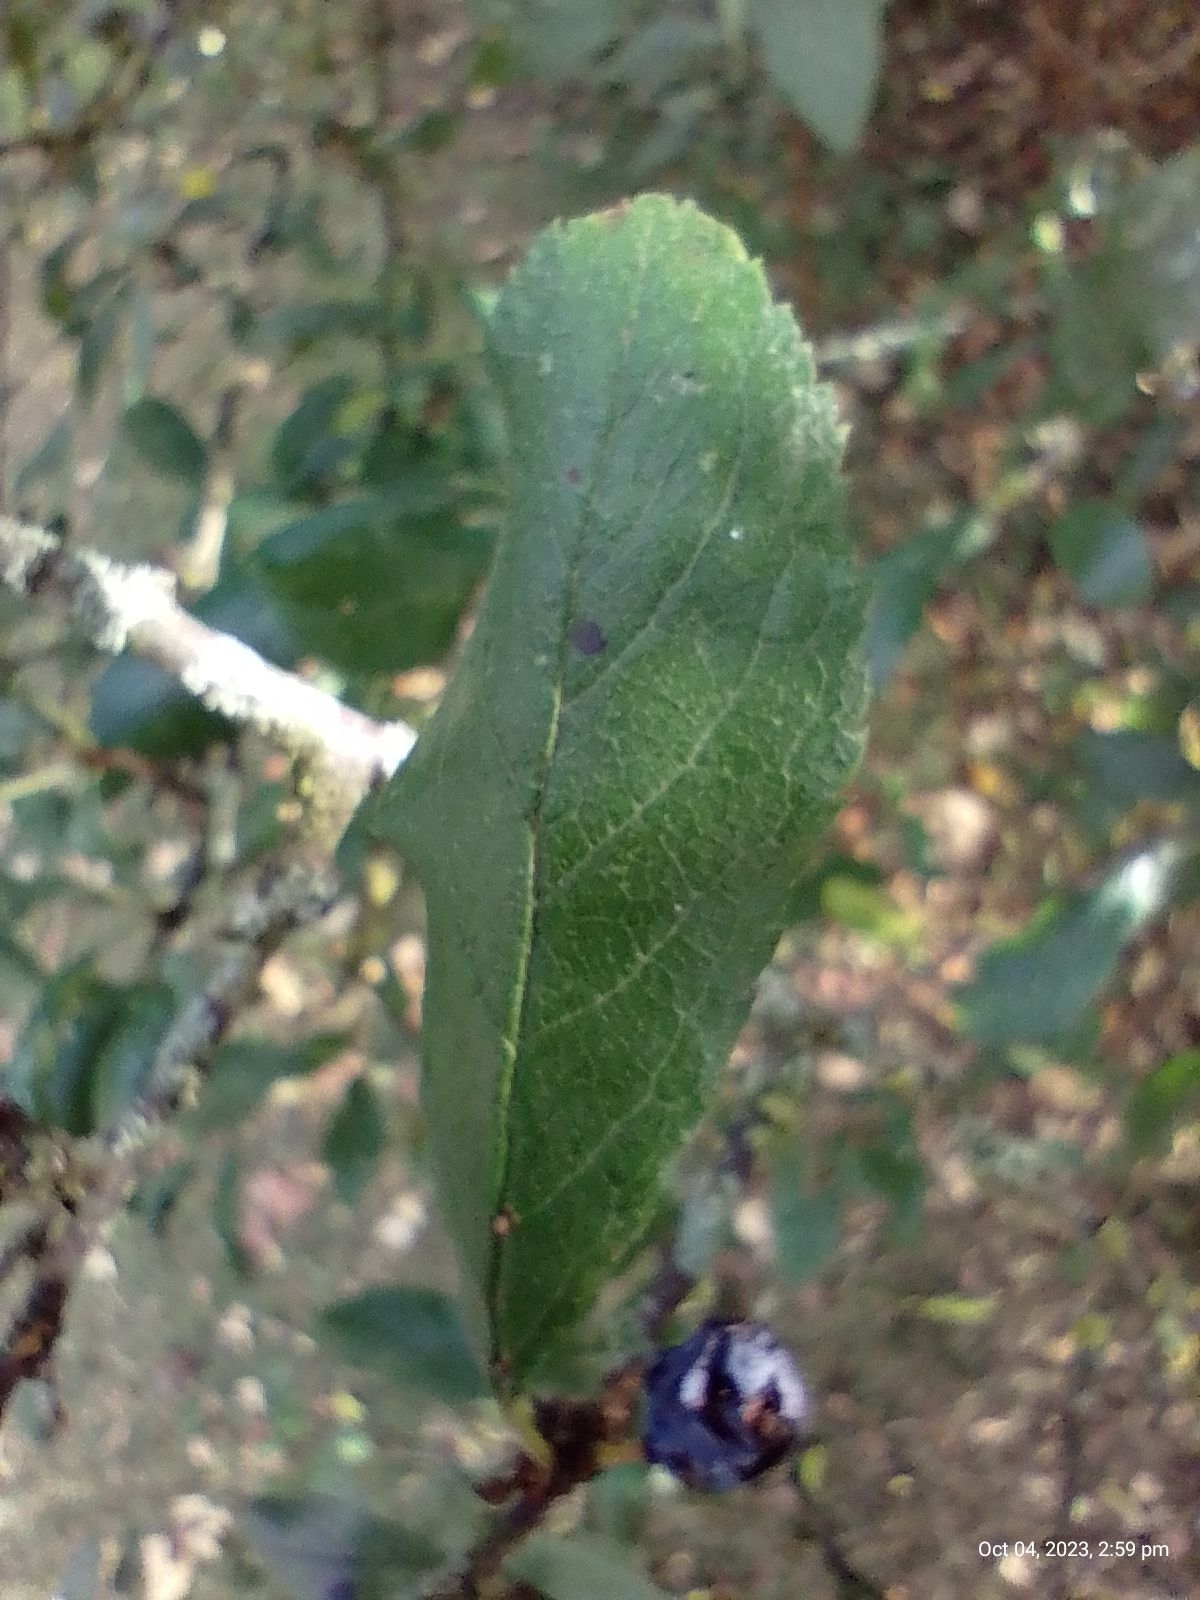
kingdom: Plantae
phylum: Tracheophyta
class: Magnoliopsida
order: Rosales
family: Rosaceae
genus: Prunus
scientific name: Prunus spinosa
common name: Blackthorn
